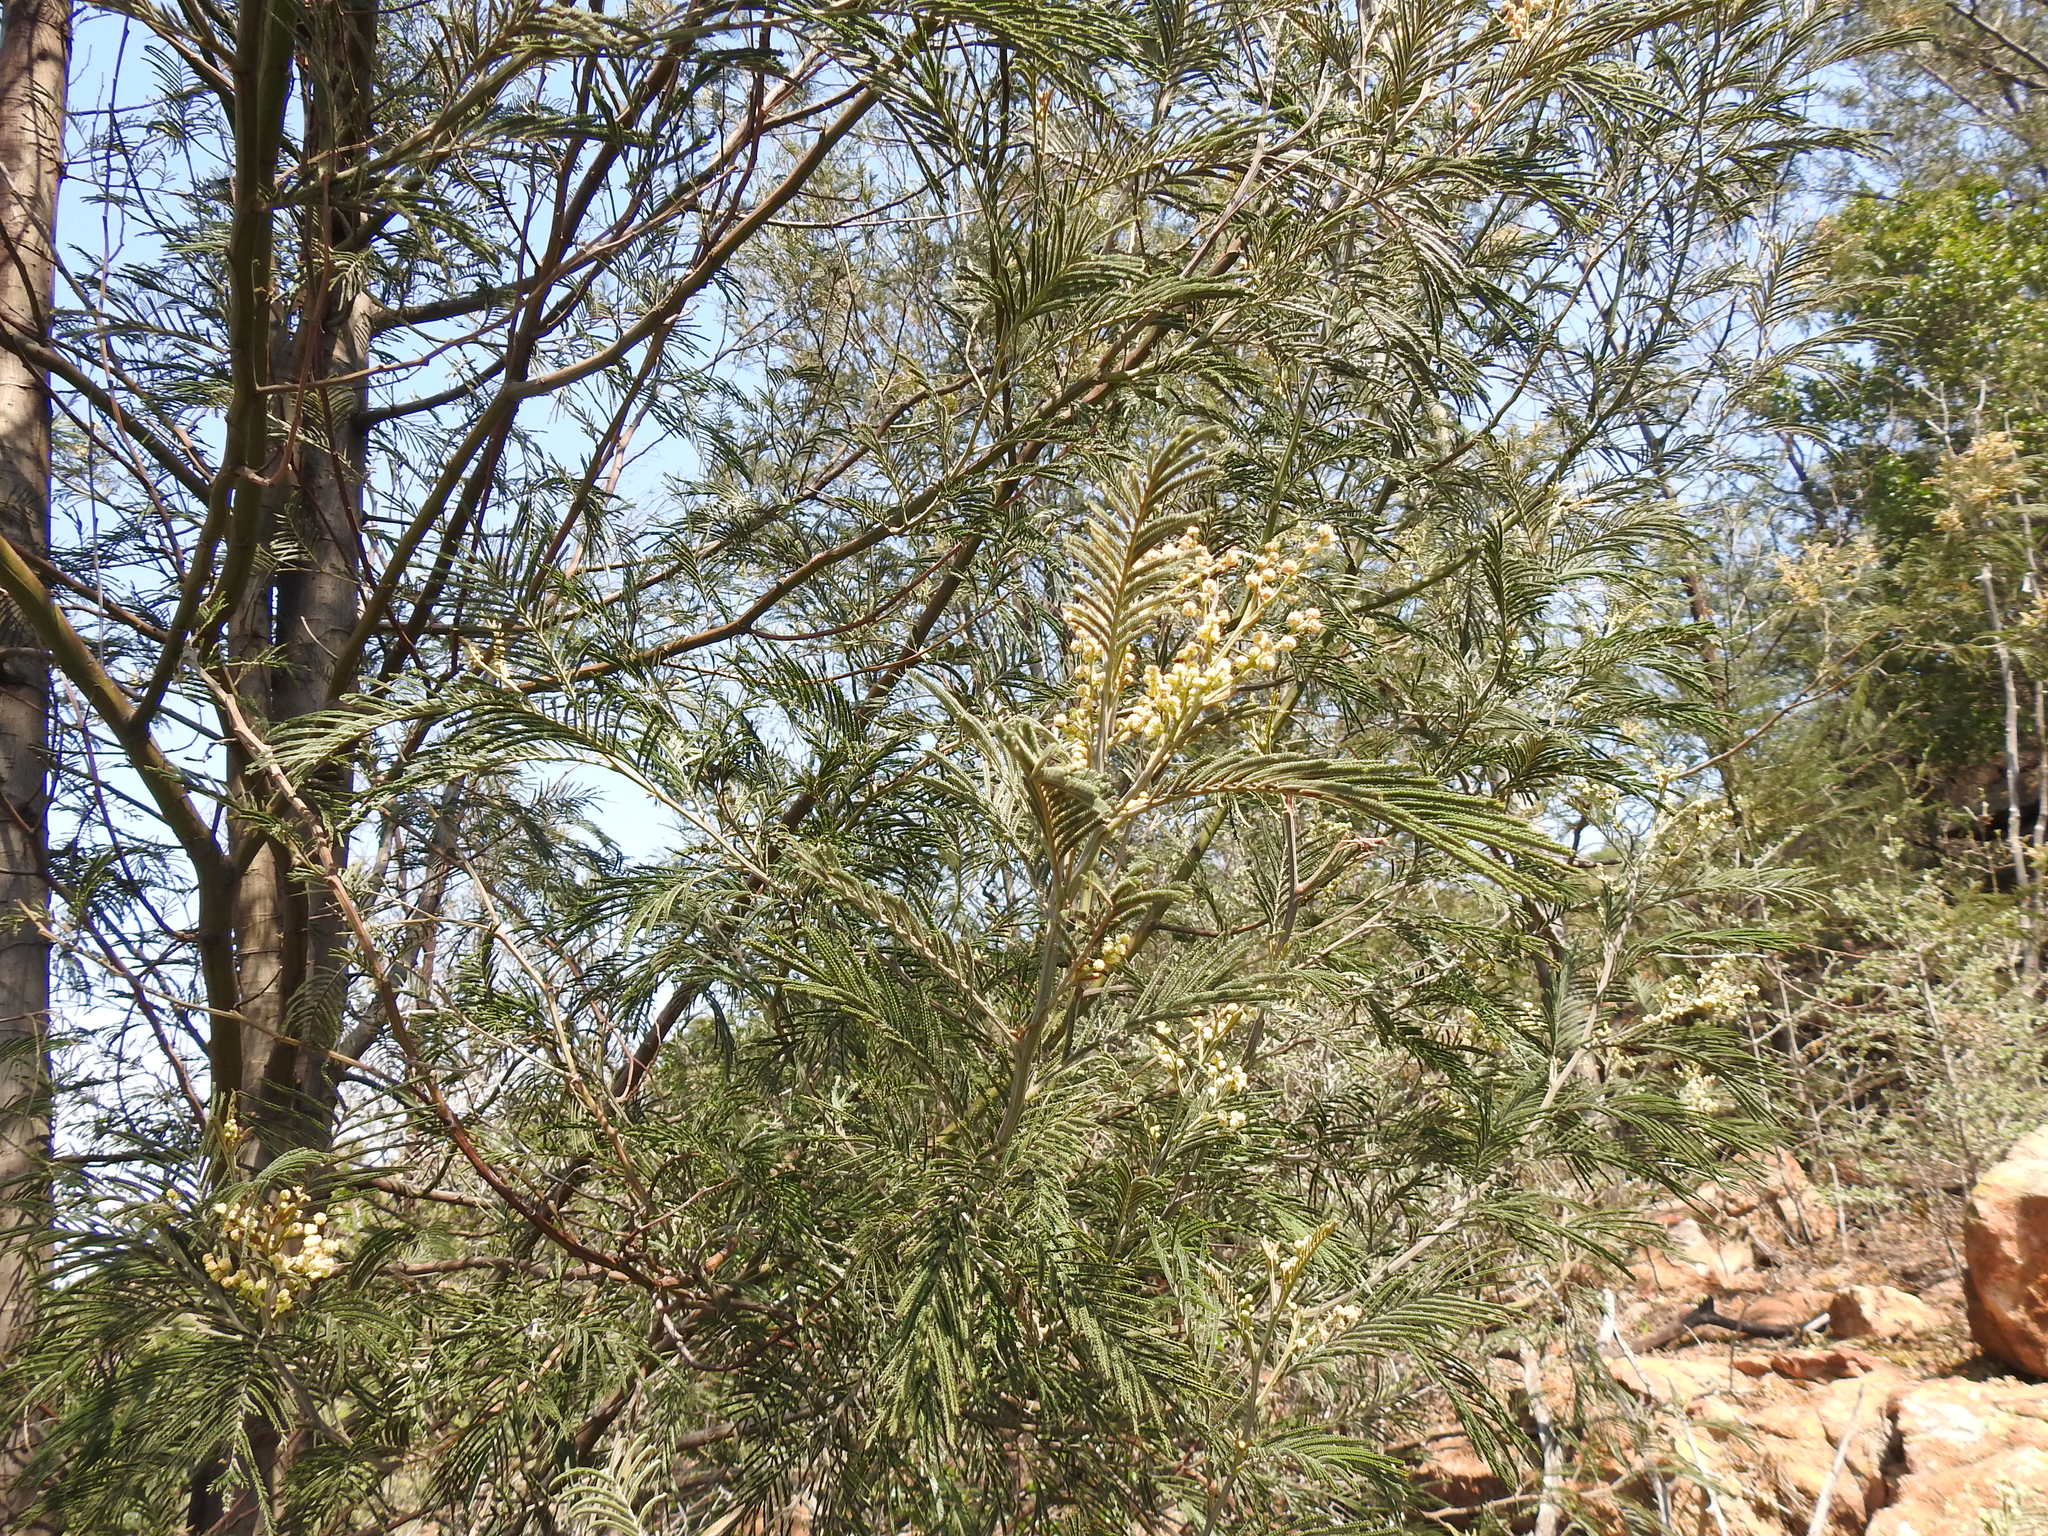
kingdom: Plantae
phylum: Tracheophyta
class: Magnoliopsida
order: Fabales
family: Fabaceae
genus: Acacia
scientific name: Acacia mearnsii
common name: Black wattle
